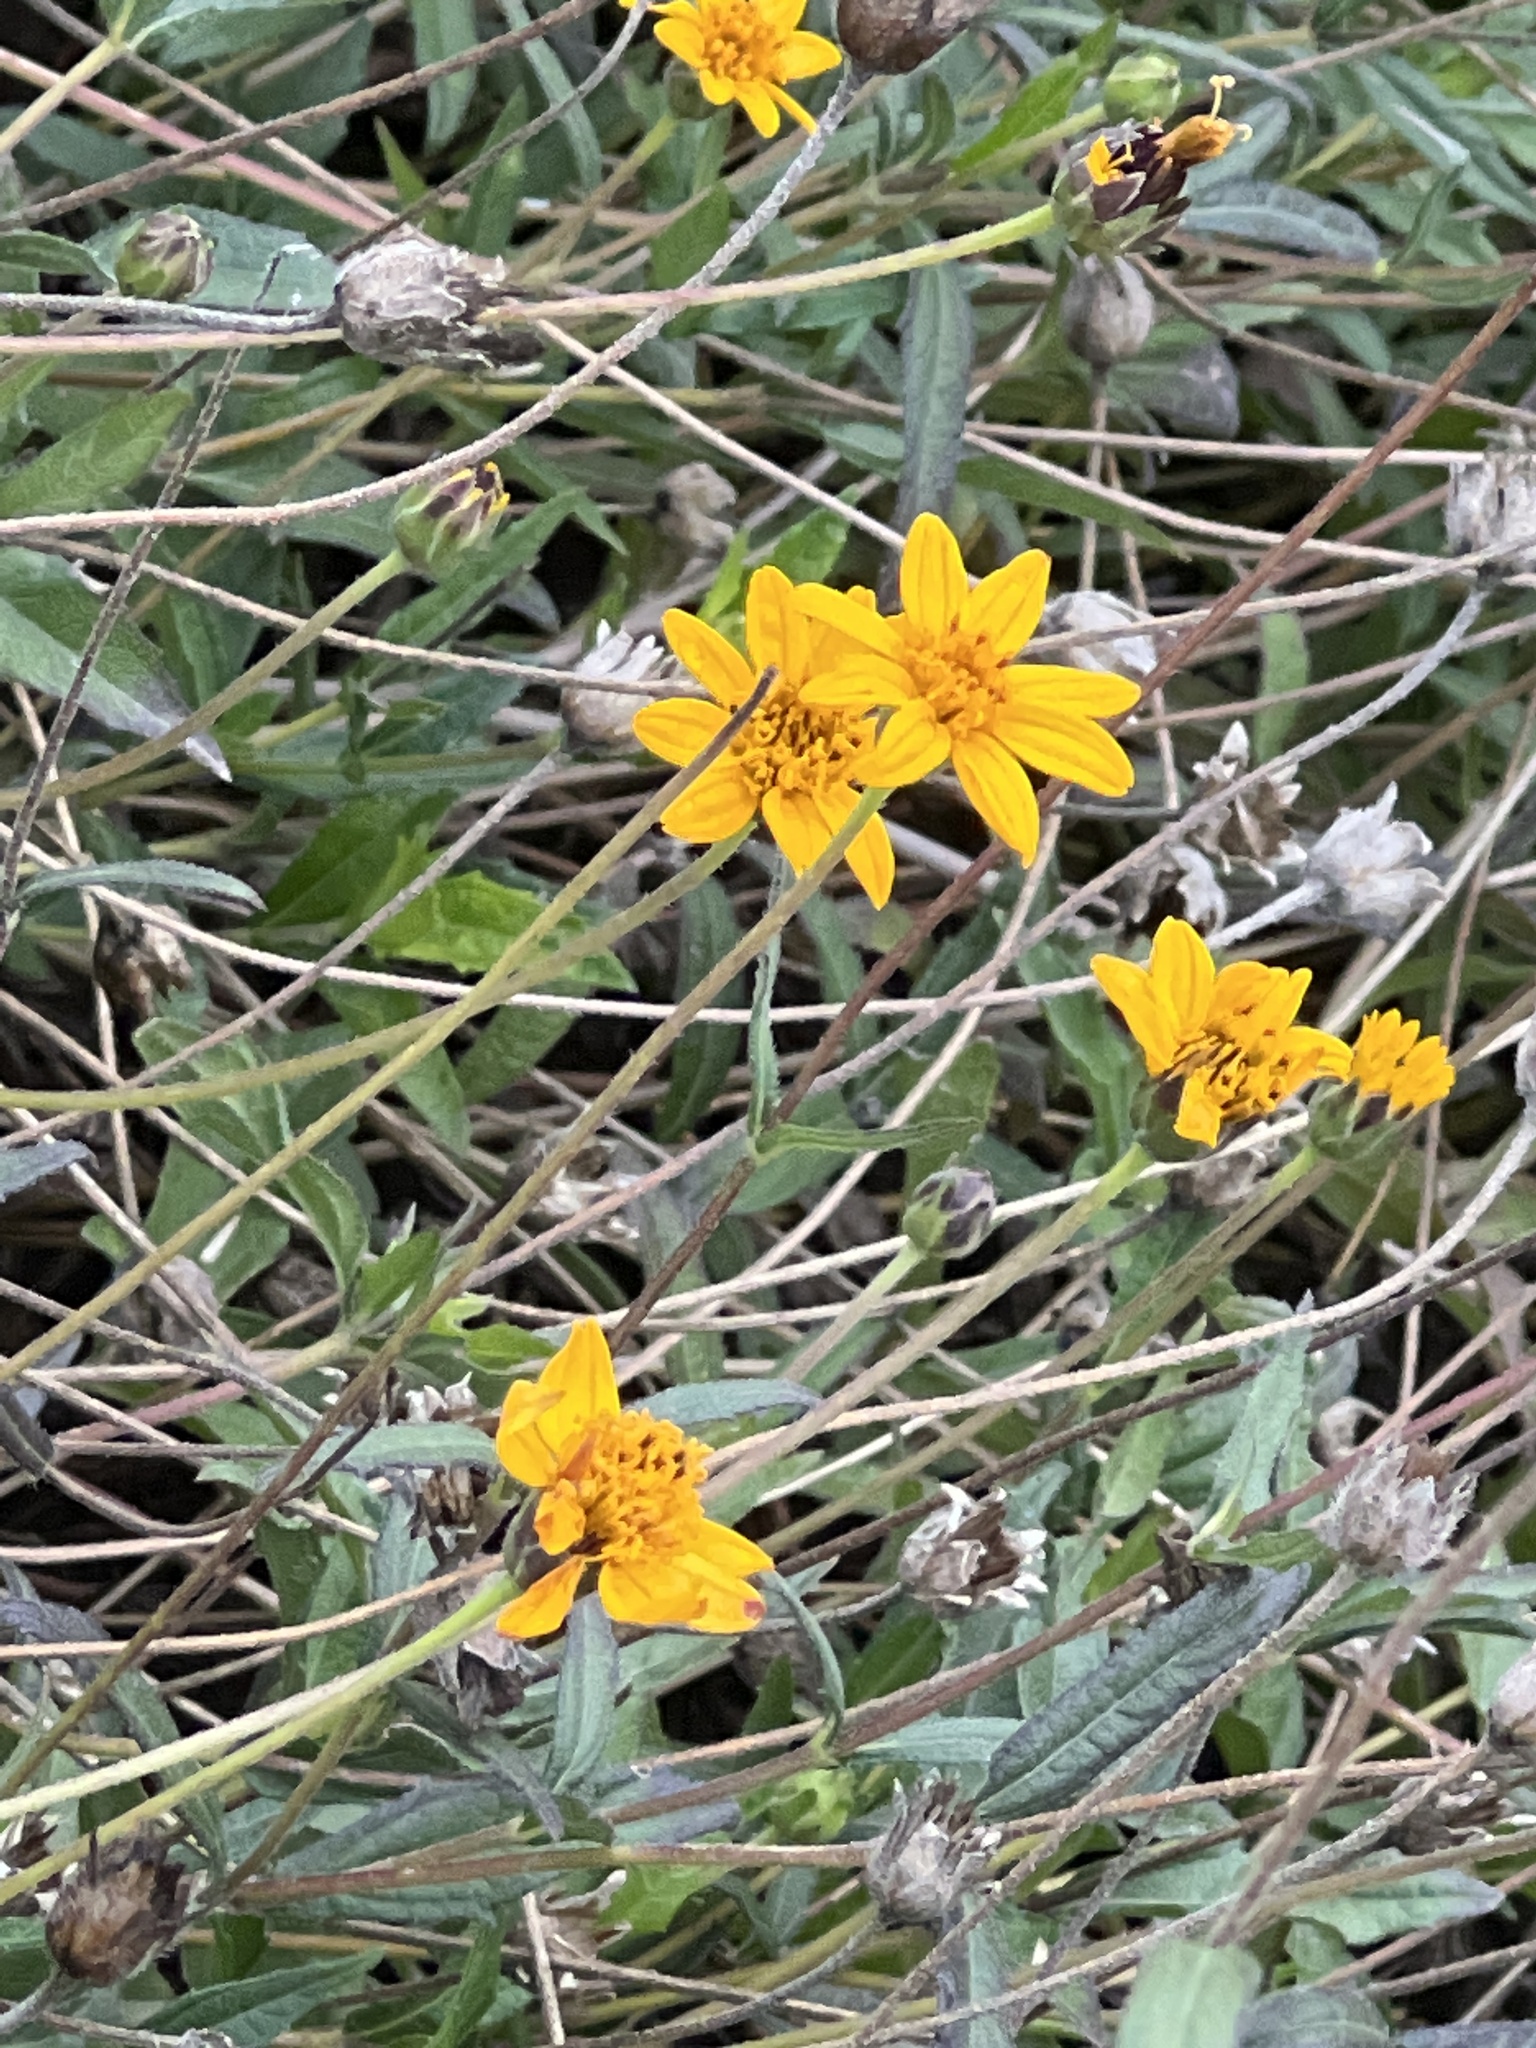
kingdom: Plantae
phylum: Tracheophyta
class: Magnoliopsida
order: Asterales
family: Asteraceae
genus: Wedelia
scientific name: Wedelia acapulcensis
